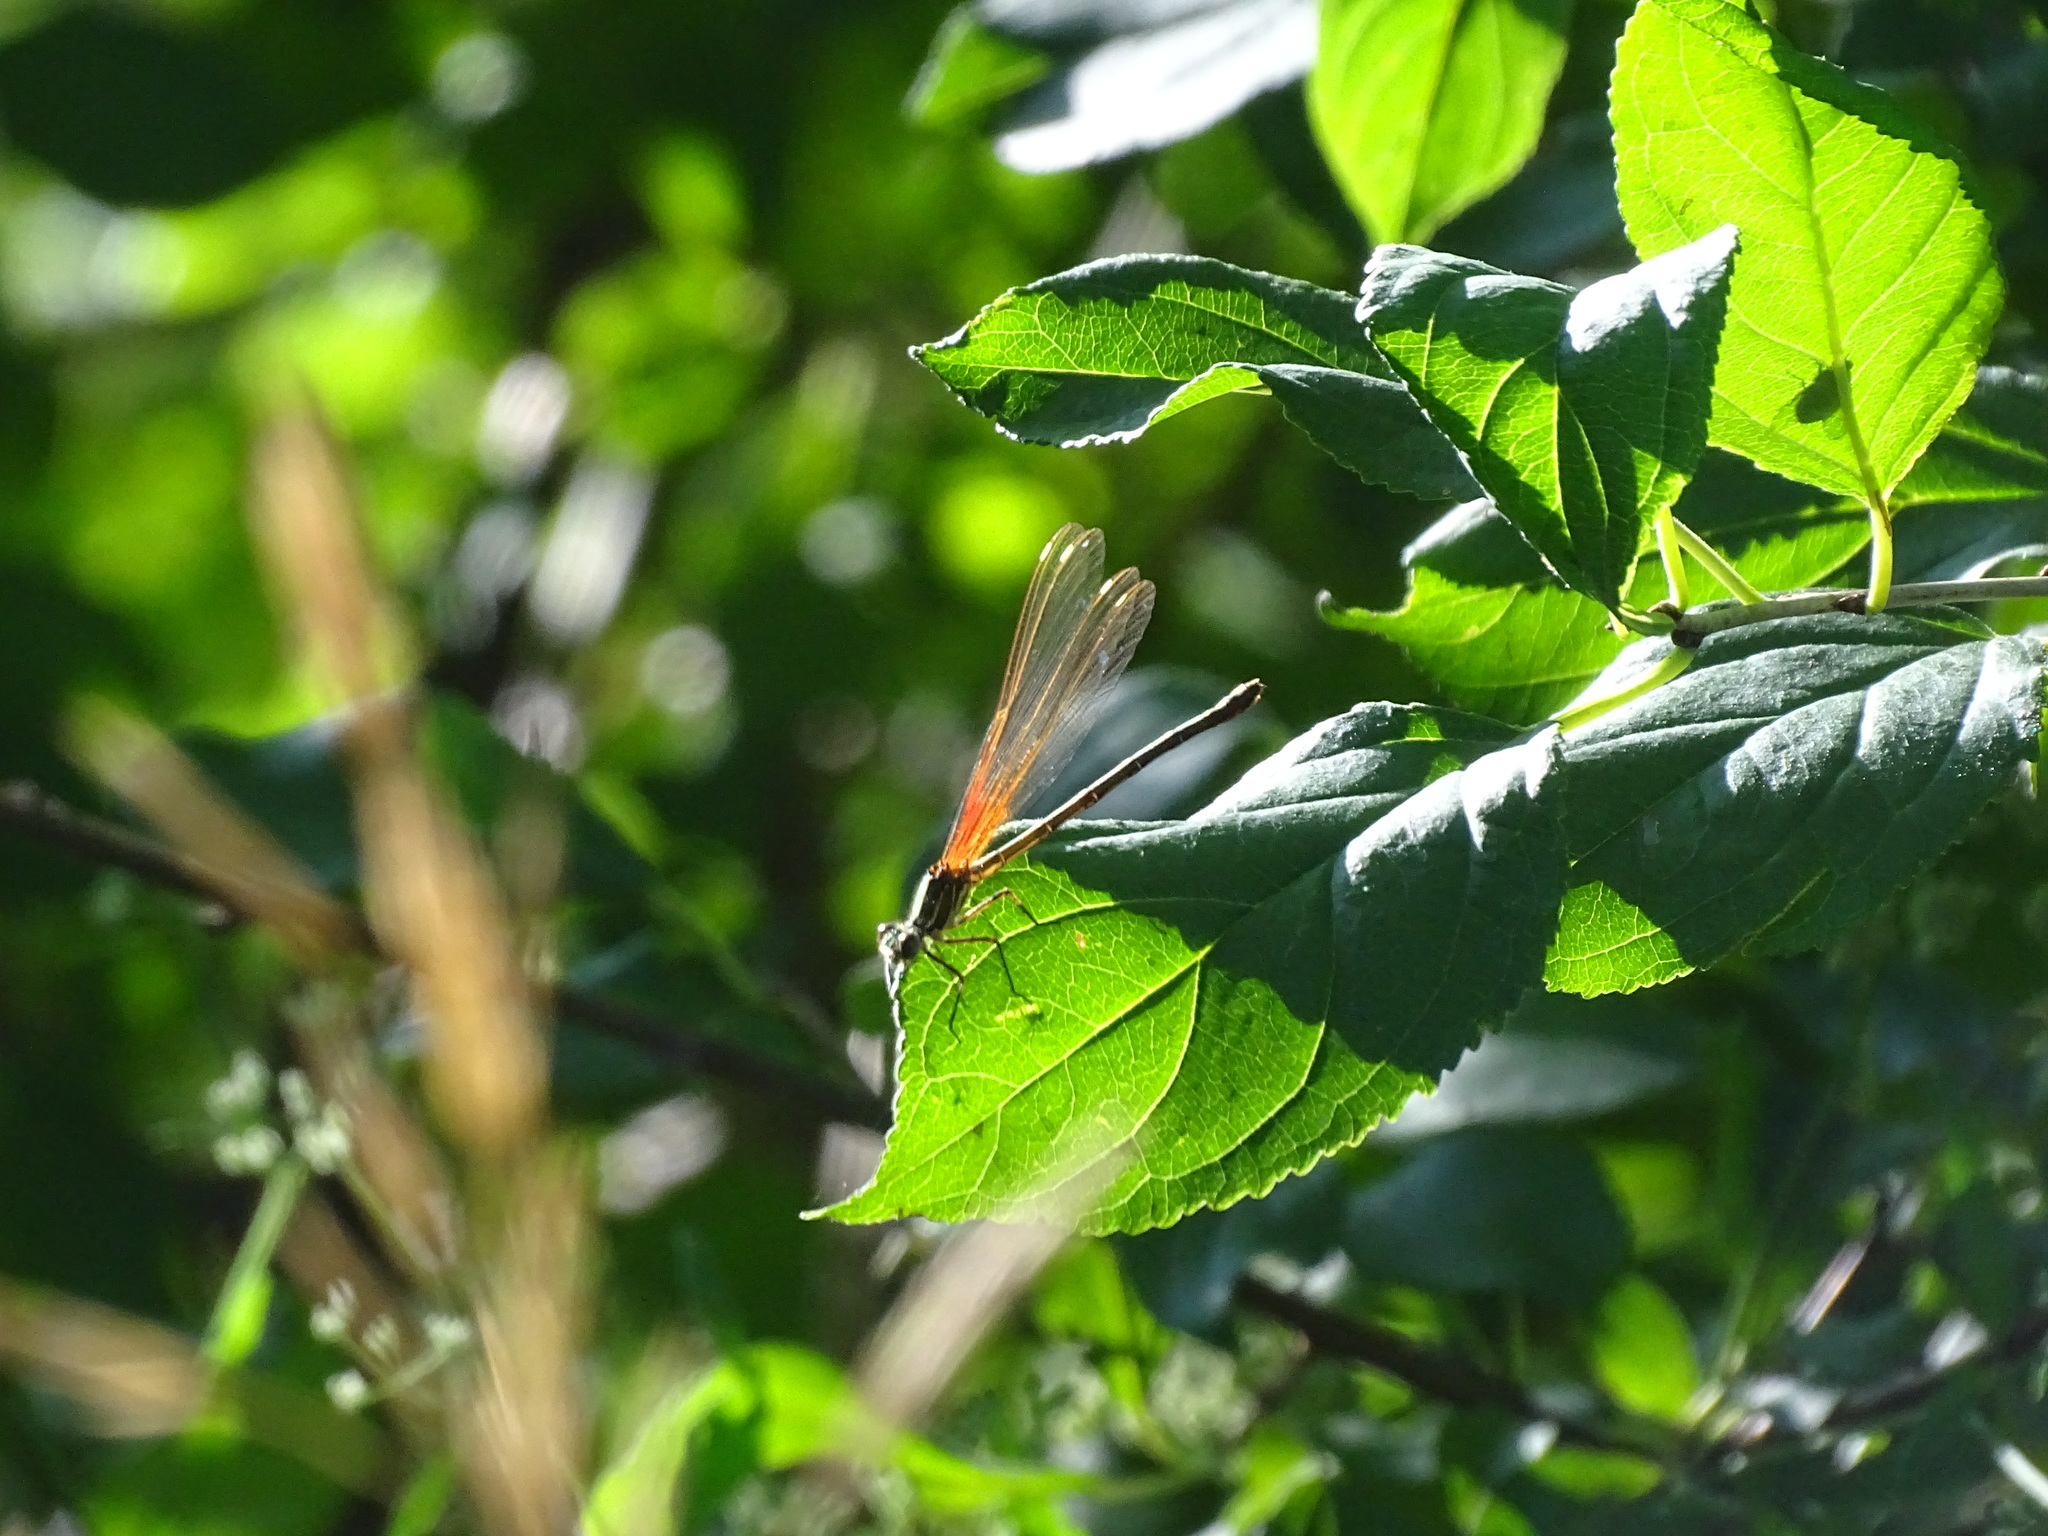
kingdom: Animalia
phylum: Arthropoda
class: Insecta
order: Odonata
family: Calopterygidae
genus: Hetaerina
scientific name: Hetaerina americana
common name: American rubyspot
